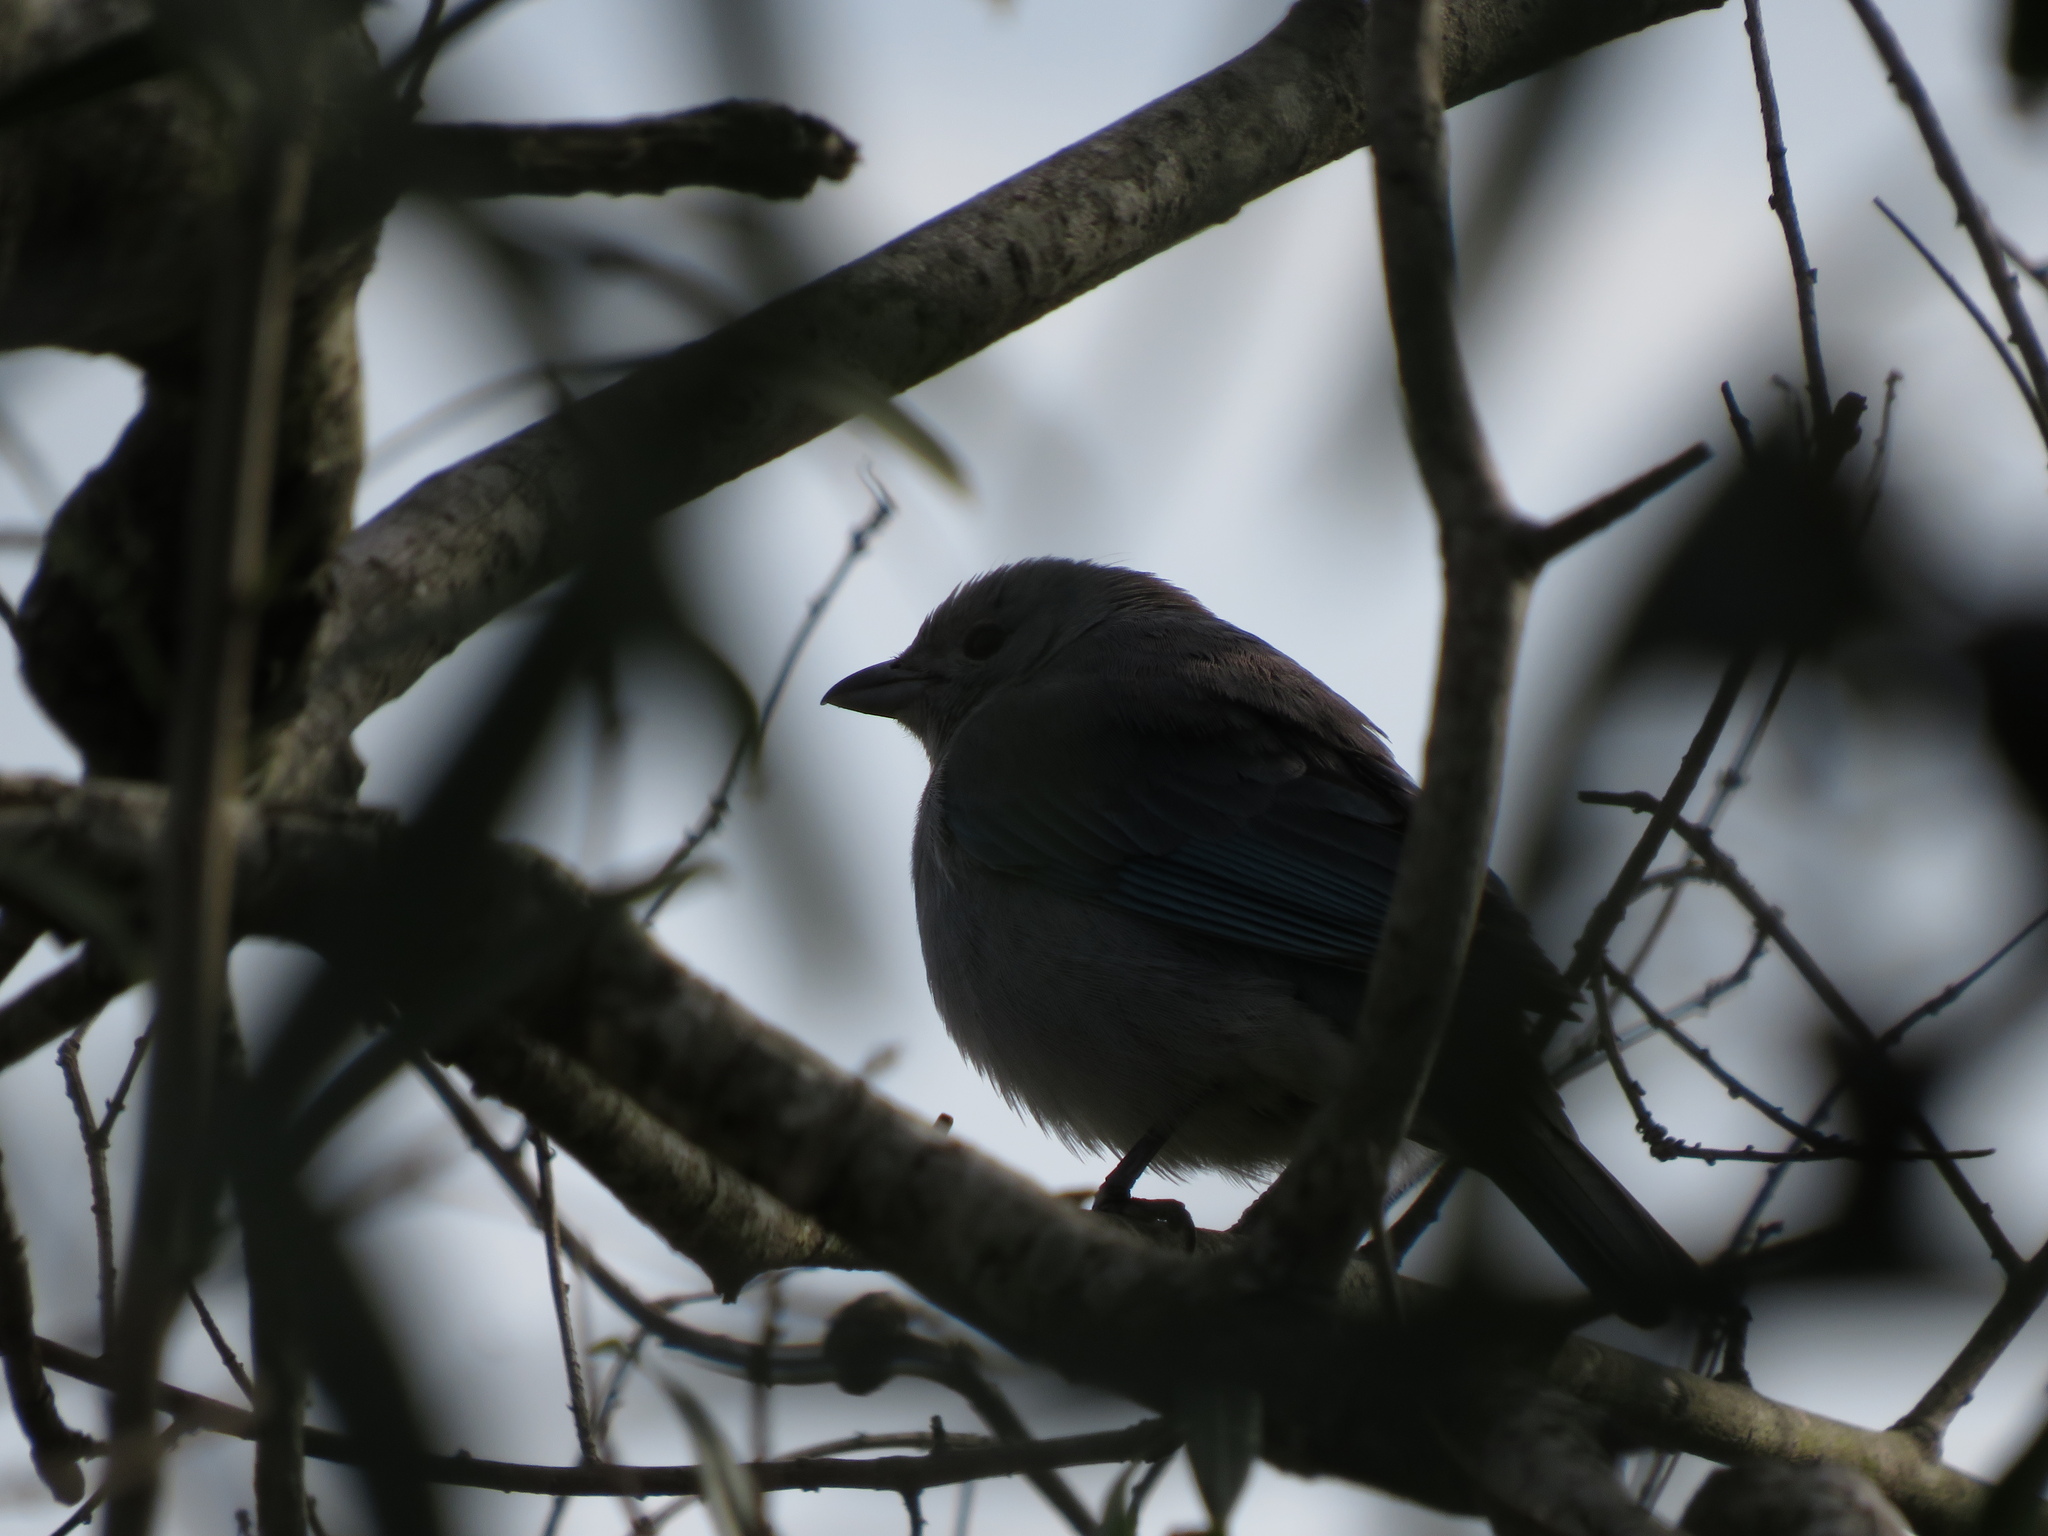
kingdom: Animalia
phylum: Chordata
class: Aves
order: Passeriformes
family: Thraupidae
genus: Thraupis
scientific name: Thraupis sayaca
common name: Sayaca tanager
